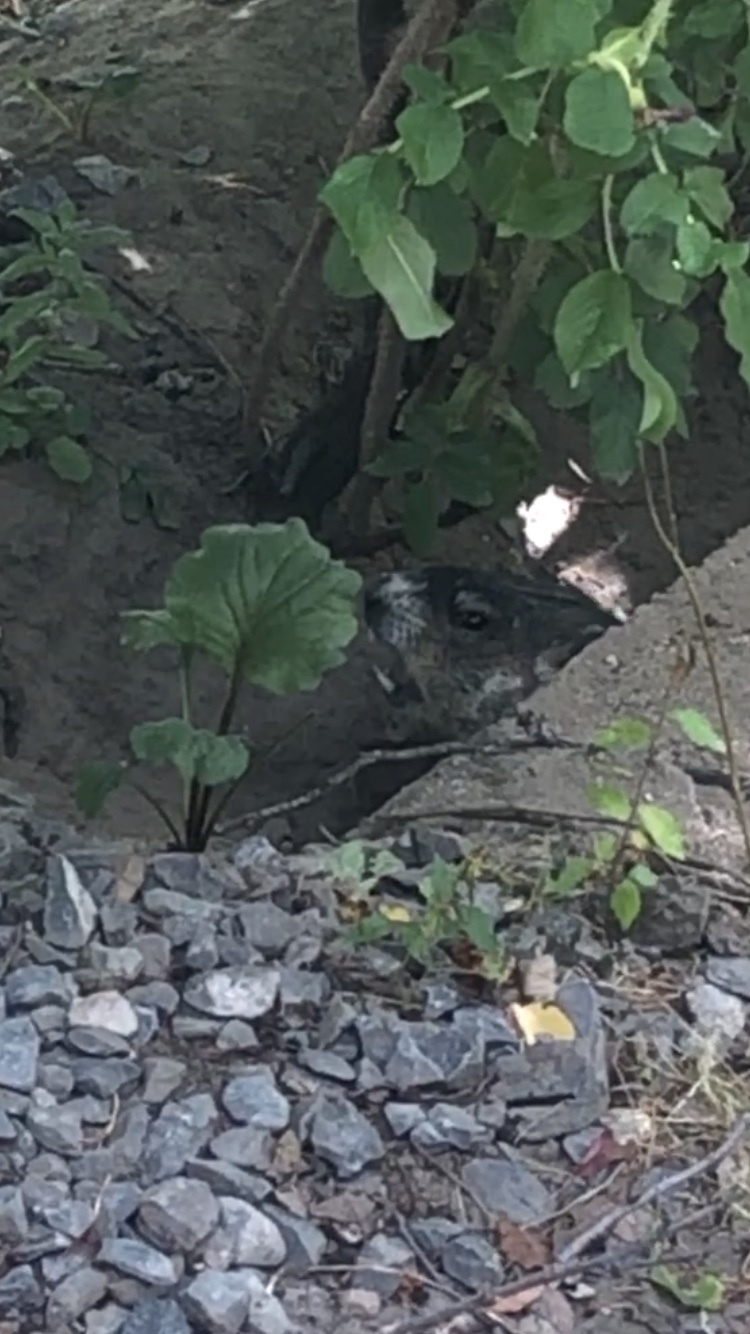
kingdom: Animalia
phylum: Chordata
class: Mammalia
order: Rodentia
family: Sciuridae
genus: Marmota
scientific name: Marmota monax
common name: Groundhog
